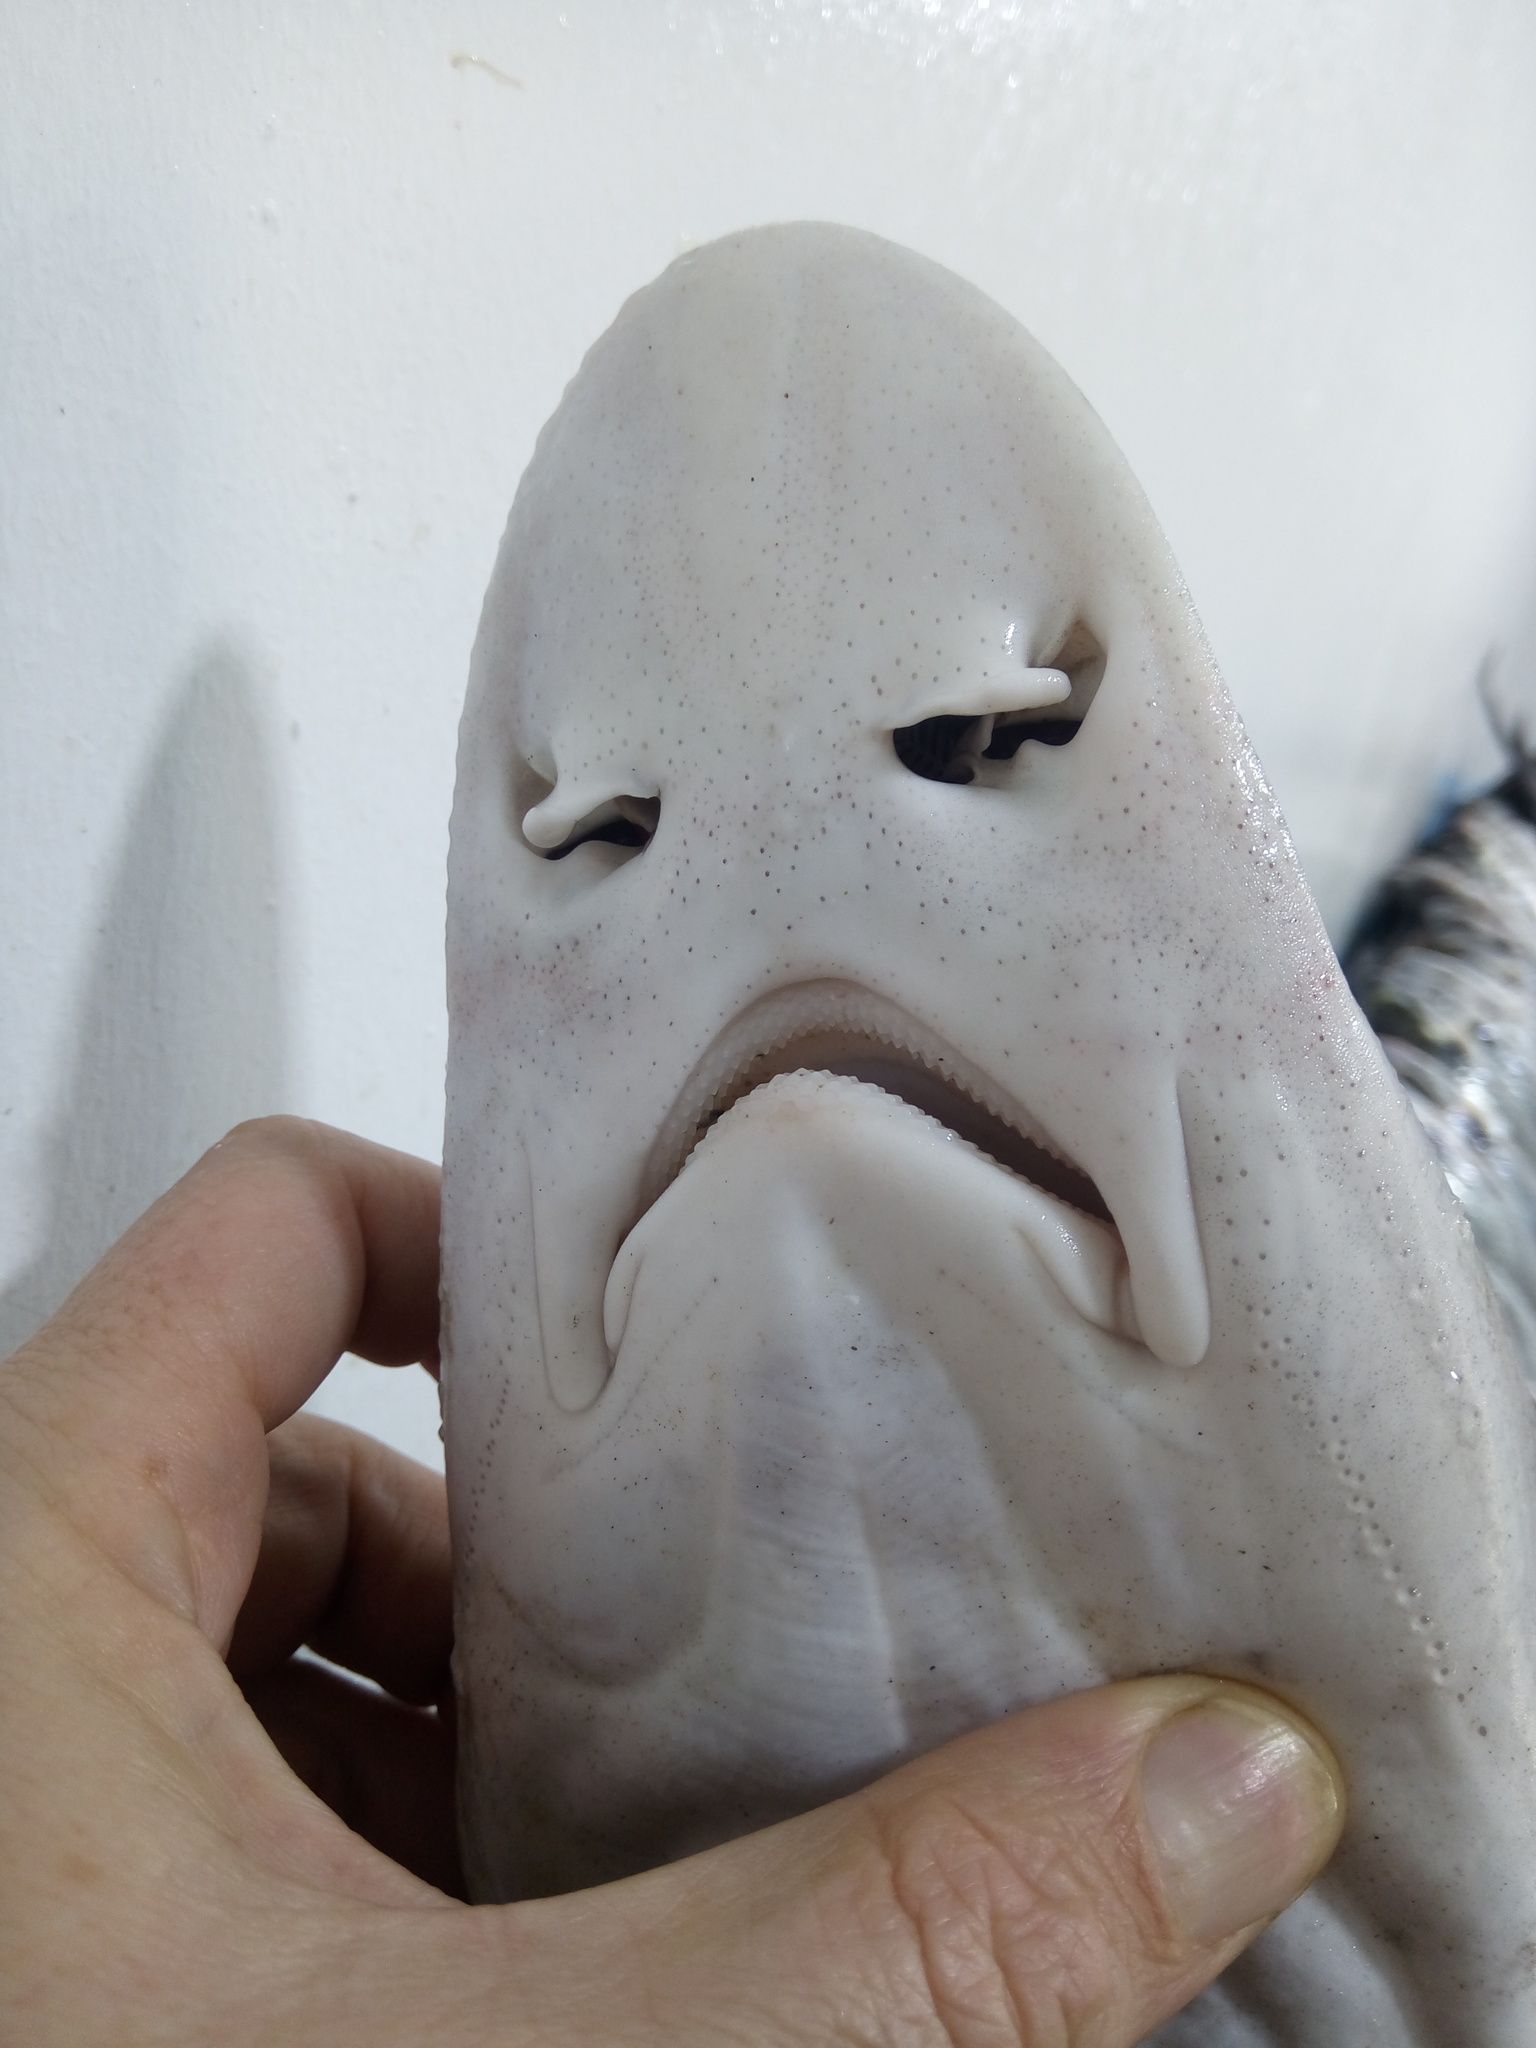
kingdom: Animalia
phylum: Chordata
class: Elasmobranchii
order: Carcharhiniformes
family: Triakidae
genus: Mustelus
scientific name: Mustelus mustelus
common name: Smooth-hound
